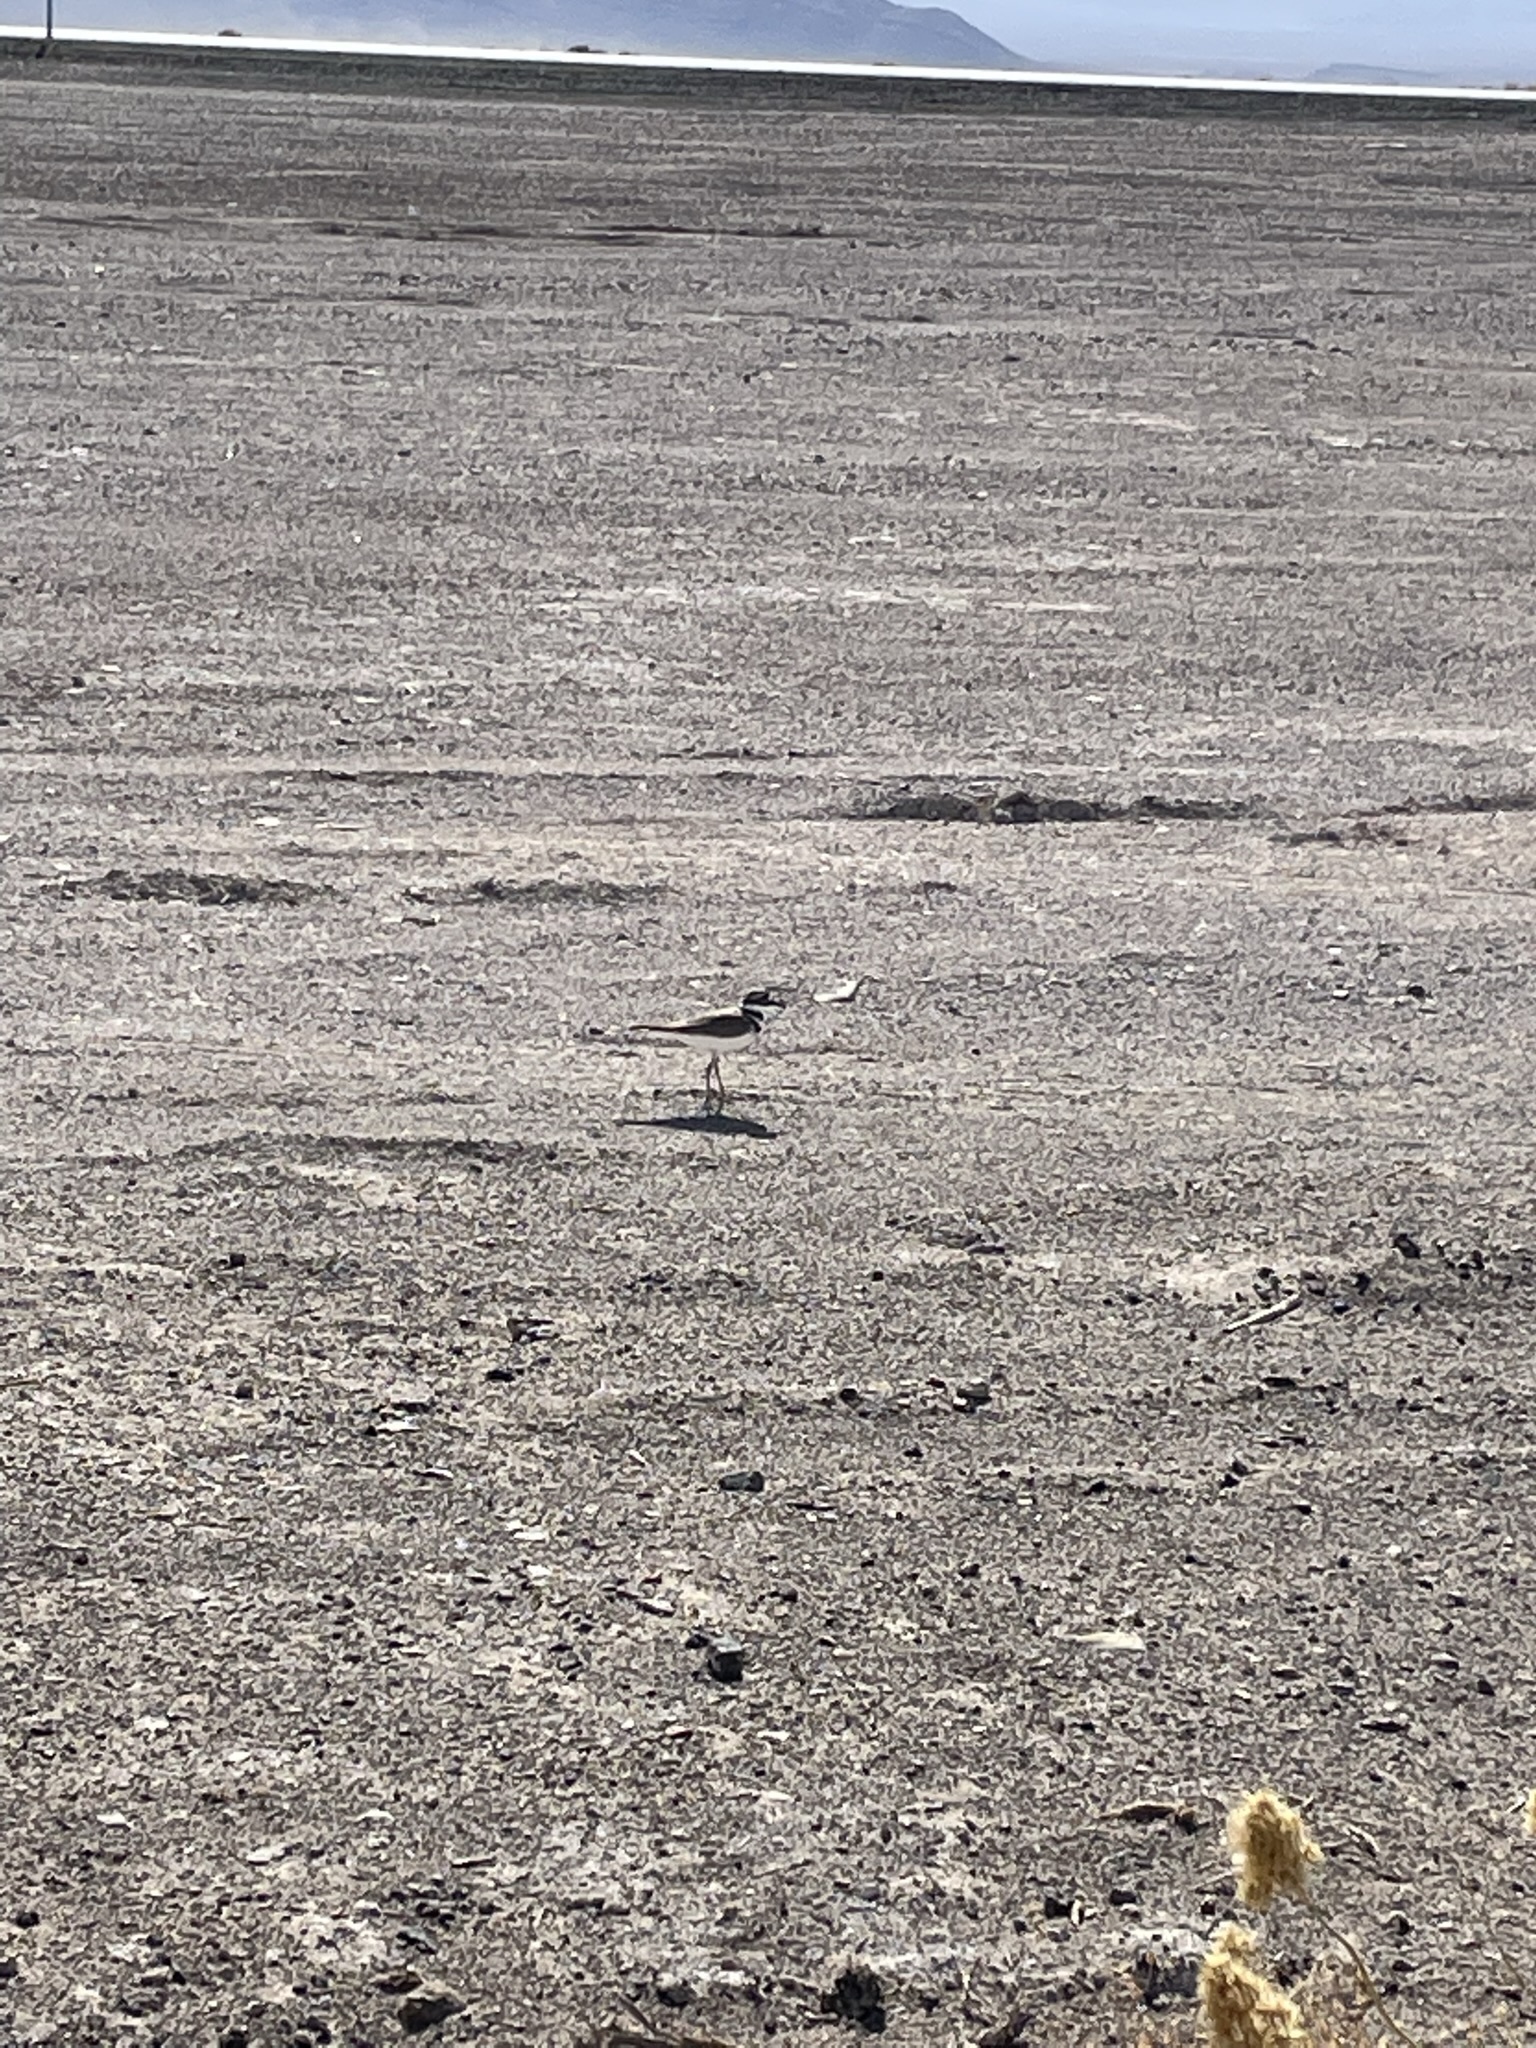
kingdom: Animalia
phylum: Chordata
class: Aves
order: Charadriiformes
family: Charadriidae
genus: Charadrius
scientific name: Charadrius vociferus
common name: Killdeer
